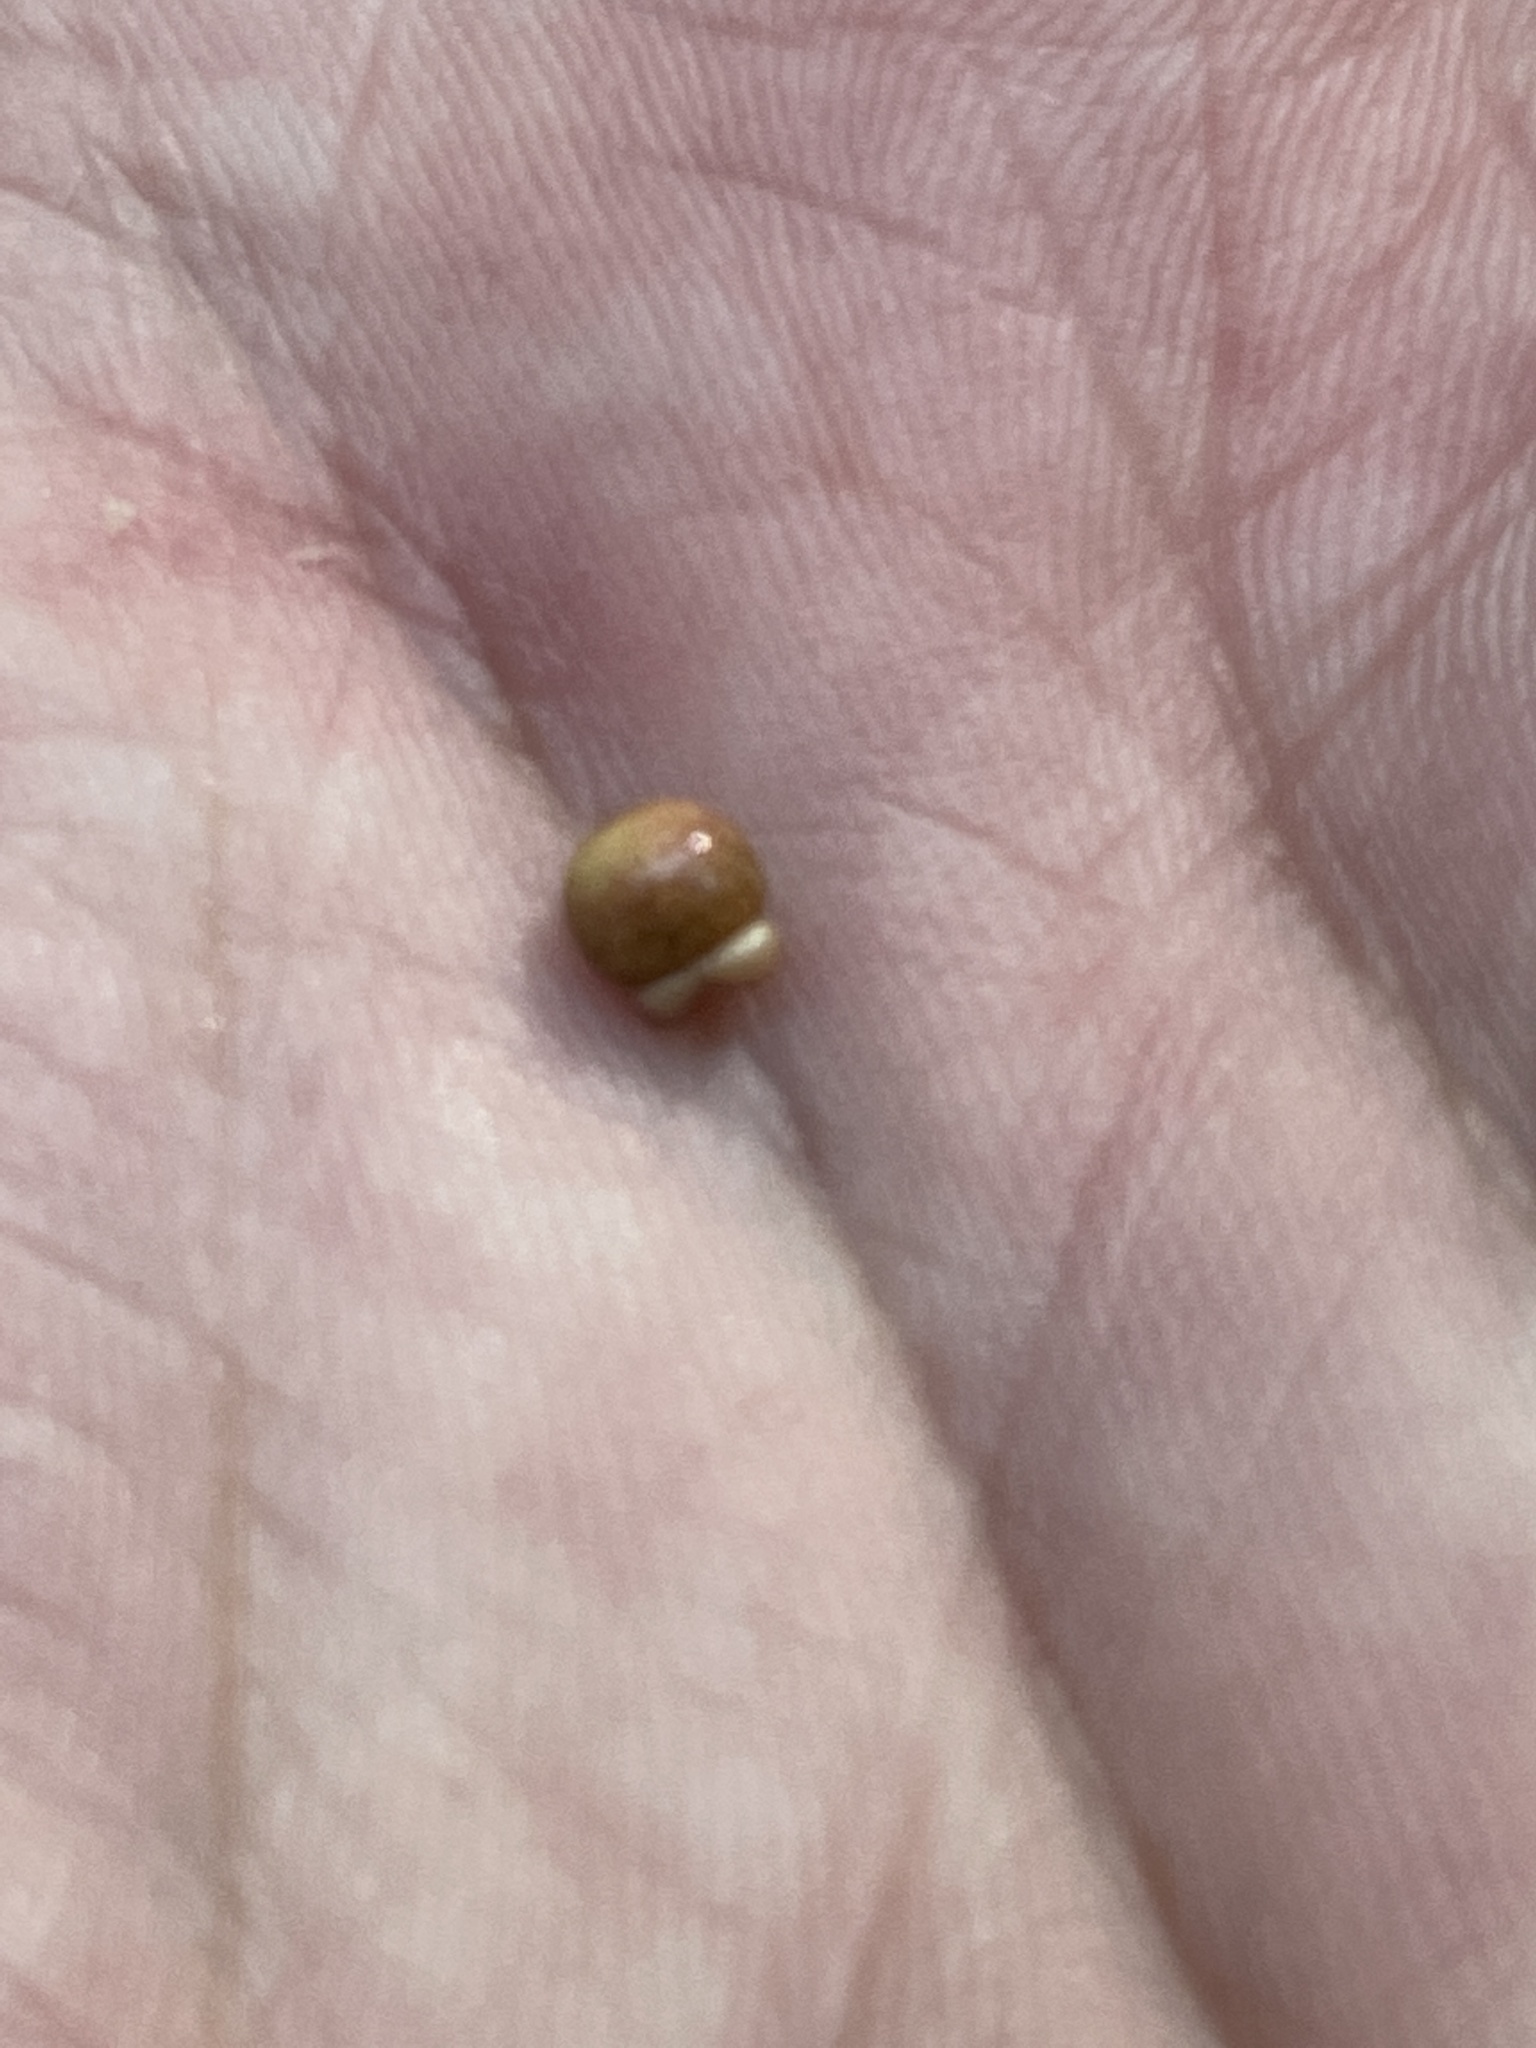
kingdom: Animalia
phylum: Arthropoda
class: Insecta
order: Hymenoptera
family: Cynipidae
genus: Kokkocynips
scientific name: Kokkocynips rileyi
